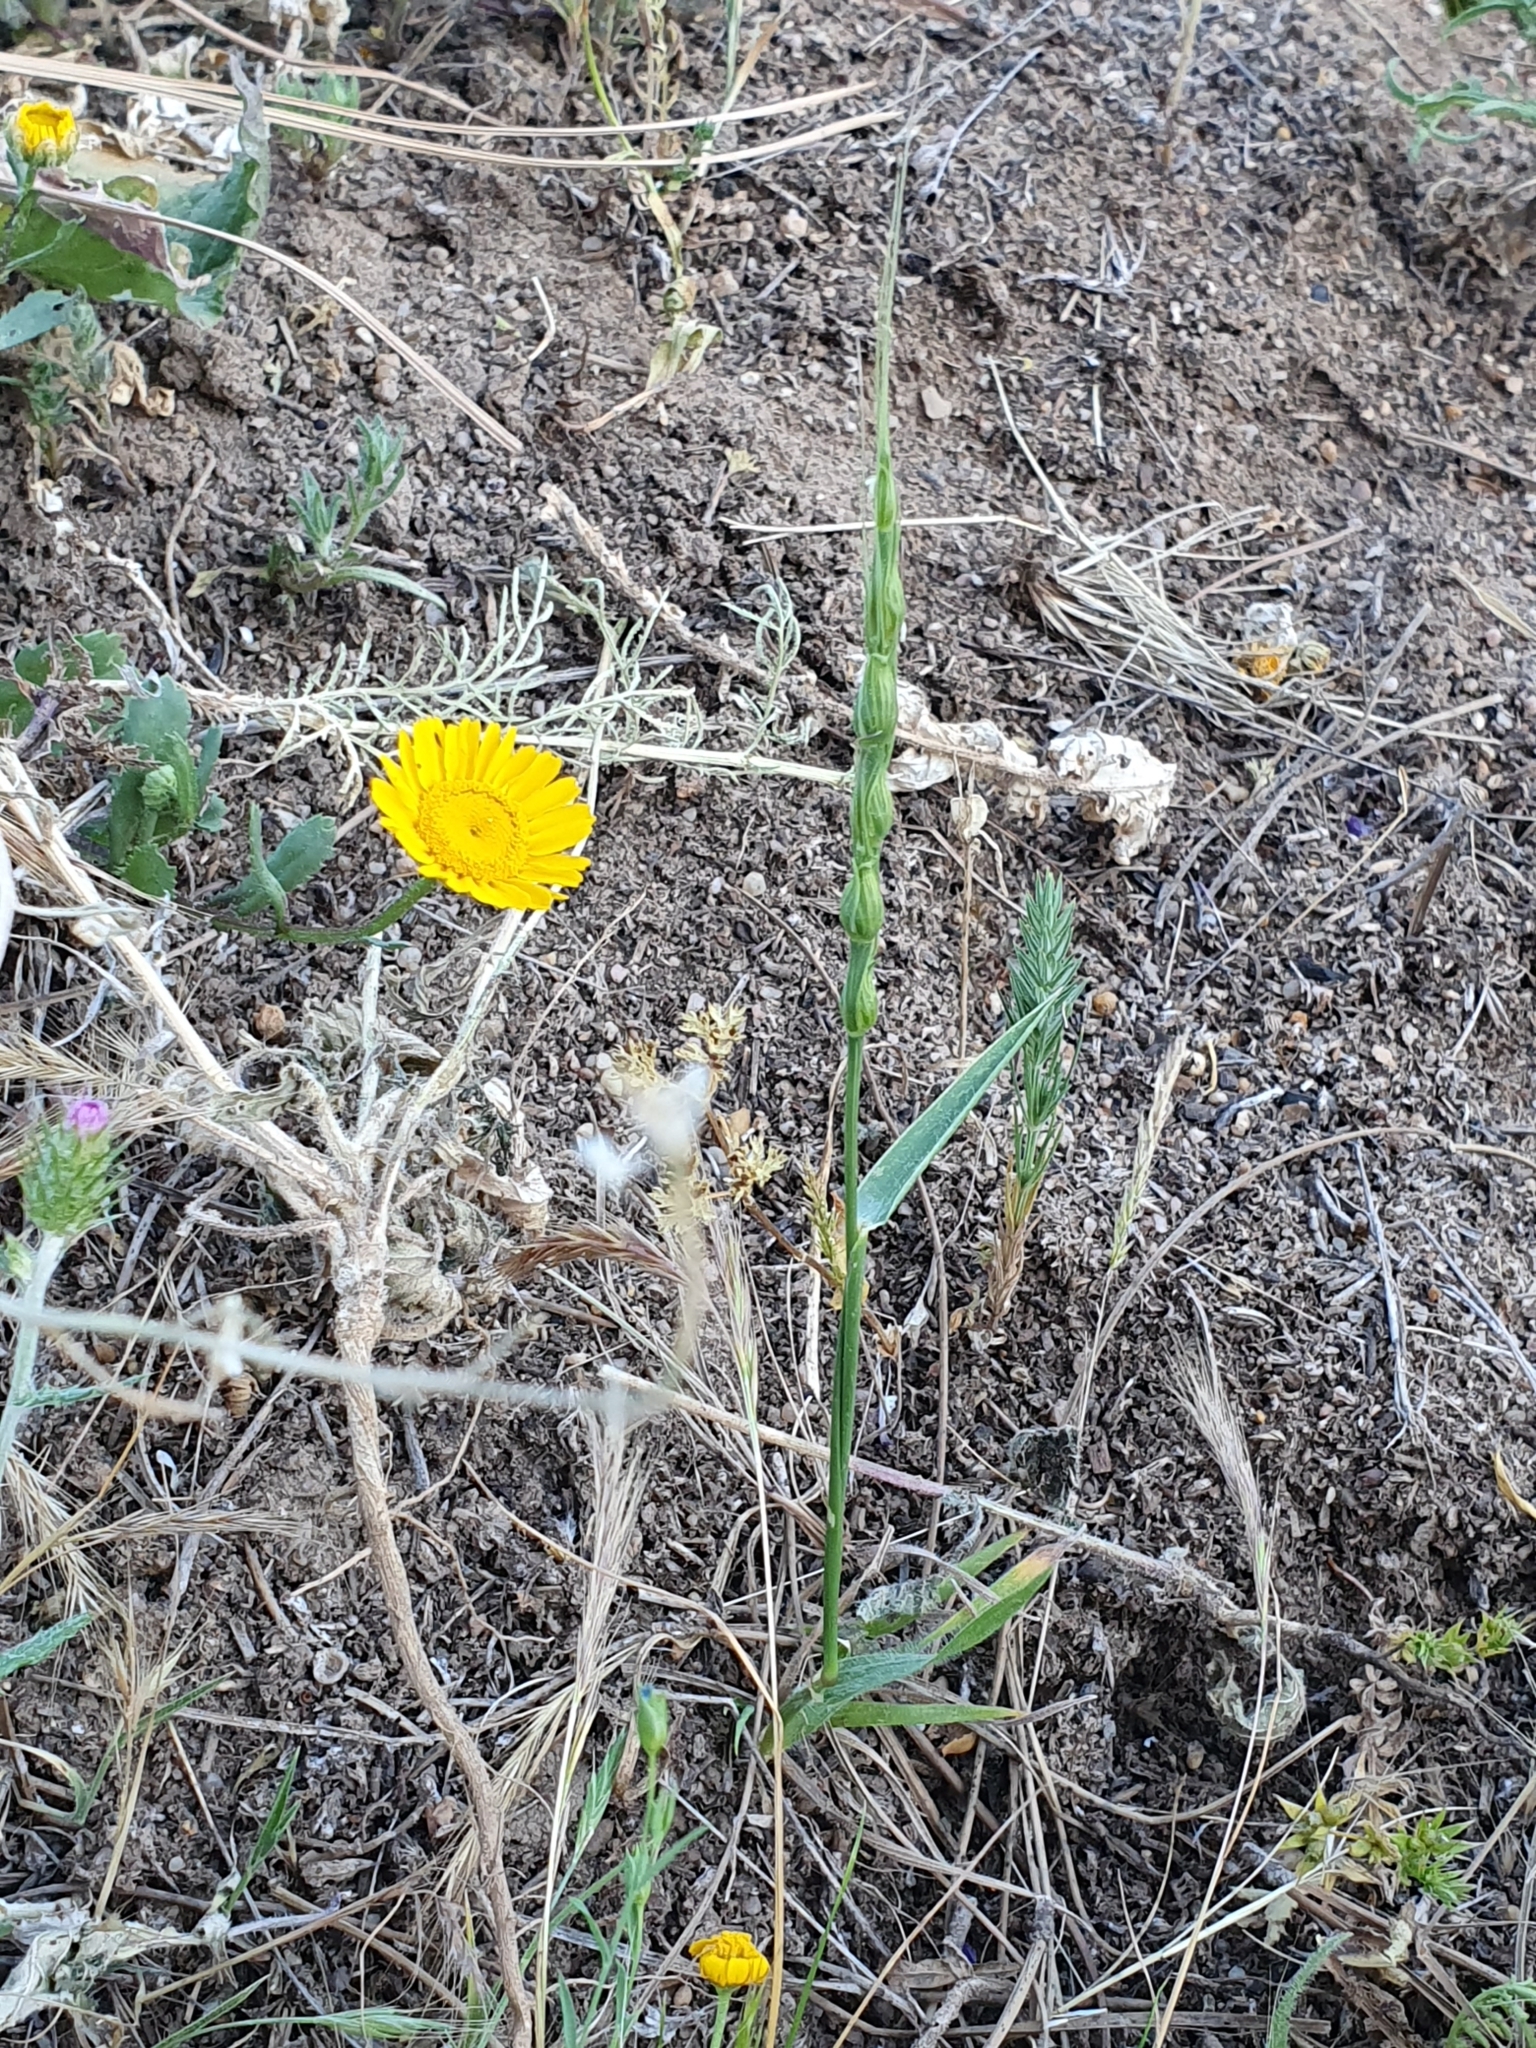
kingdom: Plantae
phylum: Tracheophyta
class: Liliopsida
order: Poales
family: Poaceae
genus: Aegilops
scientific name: Aegilops ventricosa
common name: Swollen goat grass
